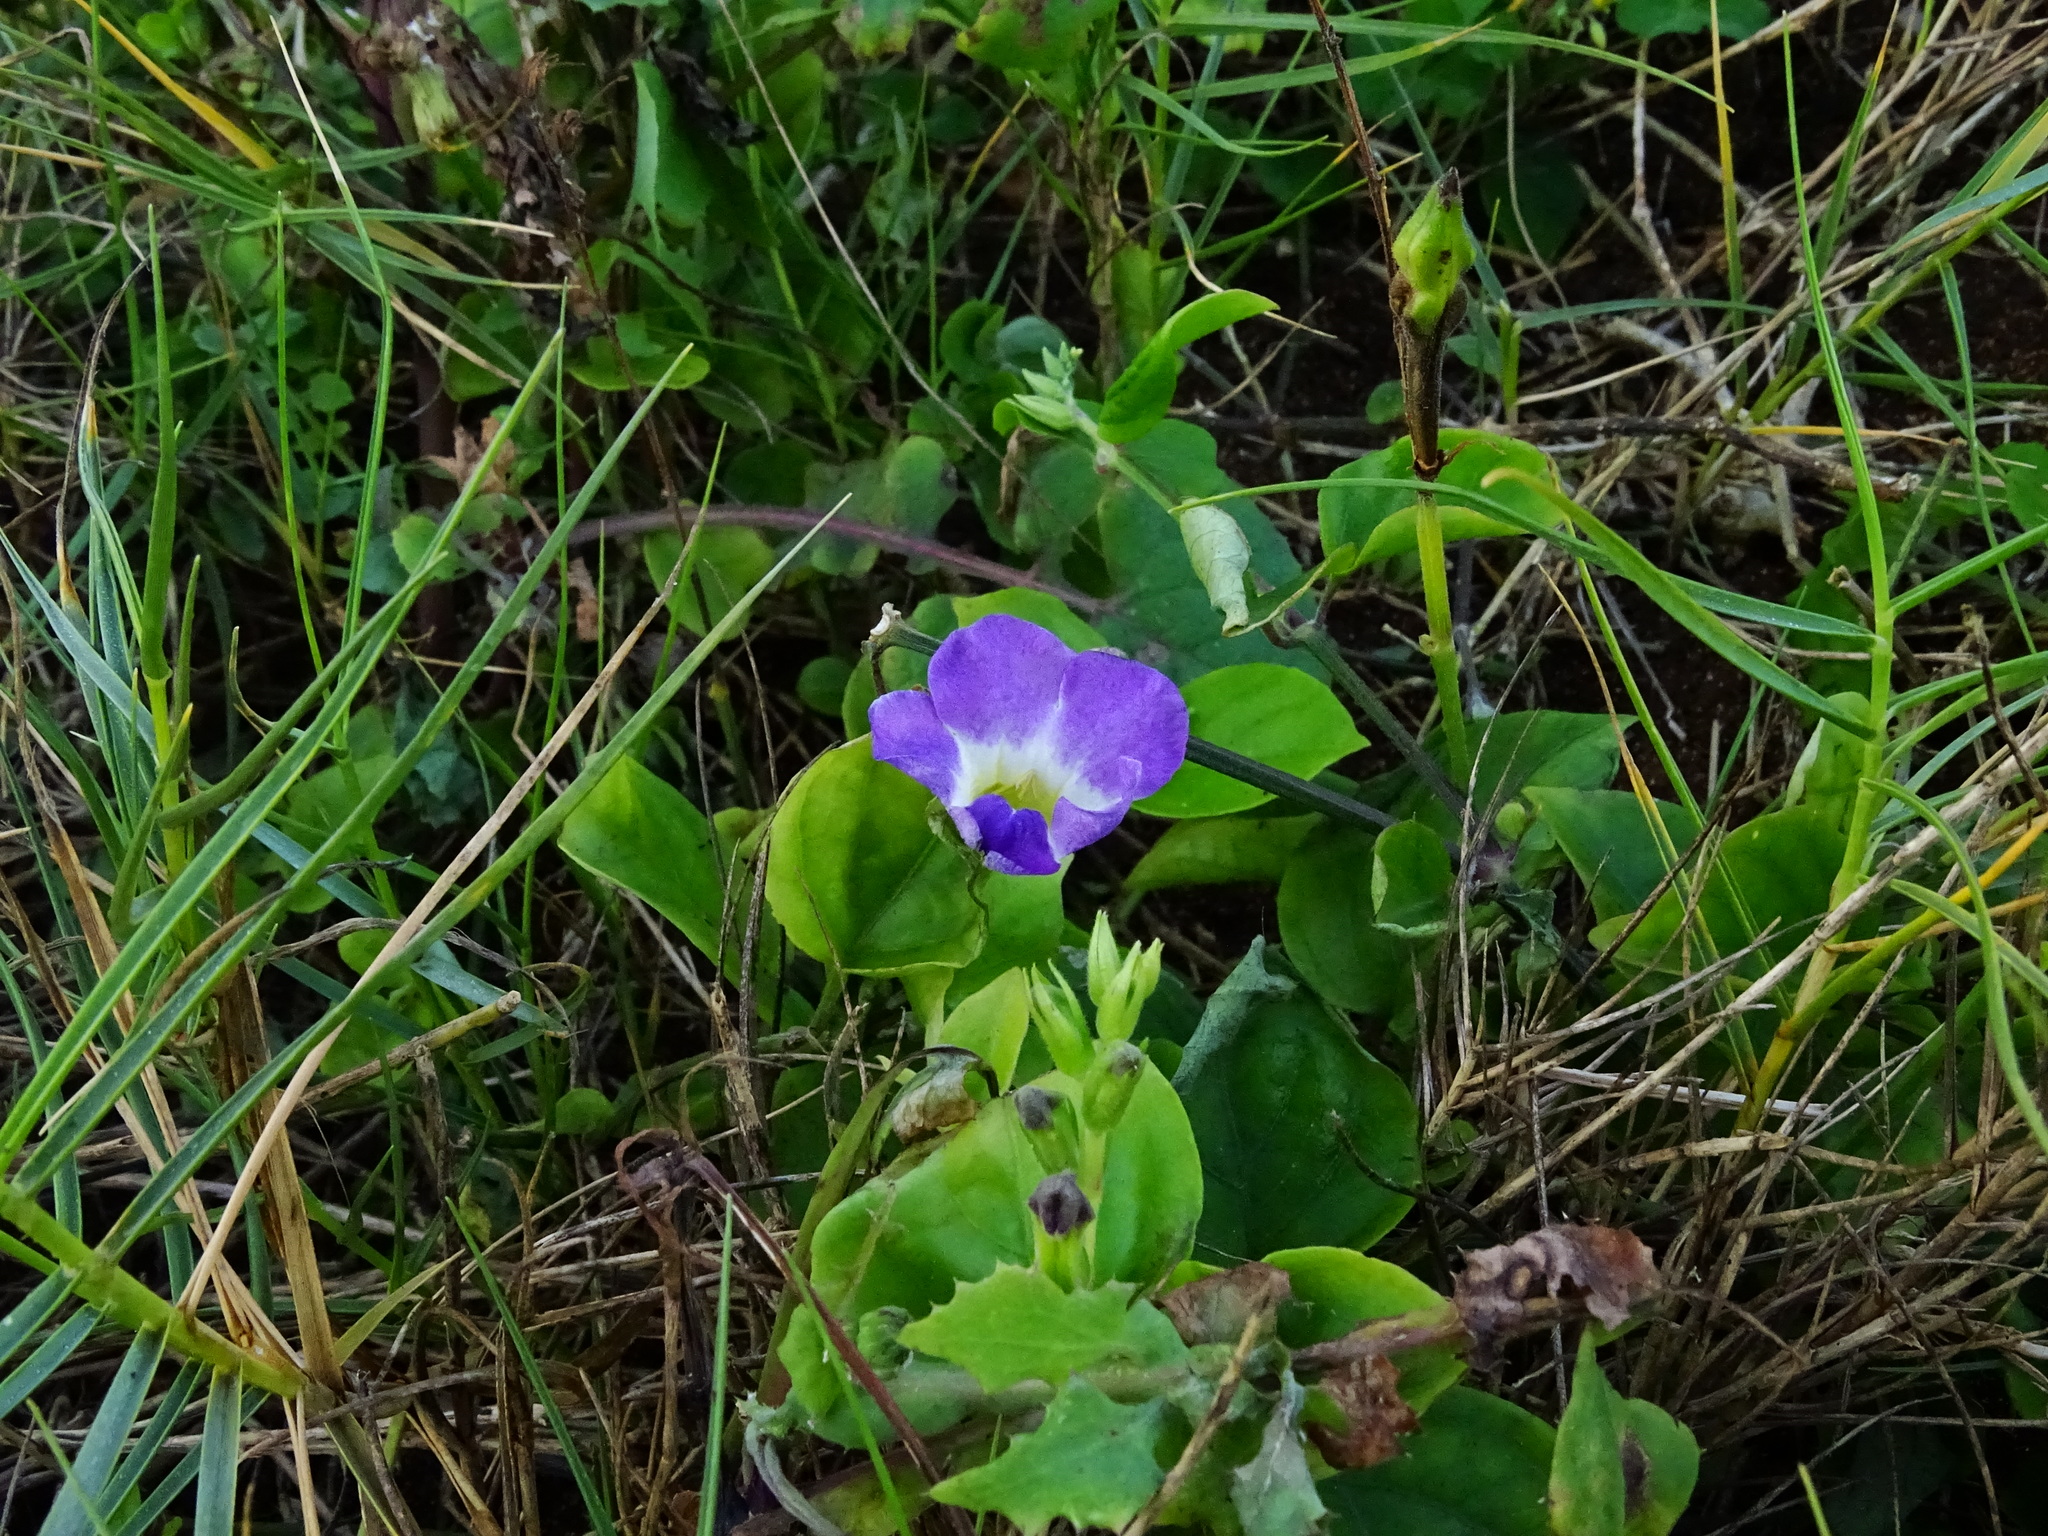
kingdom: Plantae
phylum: Tracheophyta
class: Magnoliopsida
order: Lamiales
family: Acanthaceae
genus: Asystasia
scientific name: Asystasia gangetica
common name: Chinese violet
